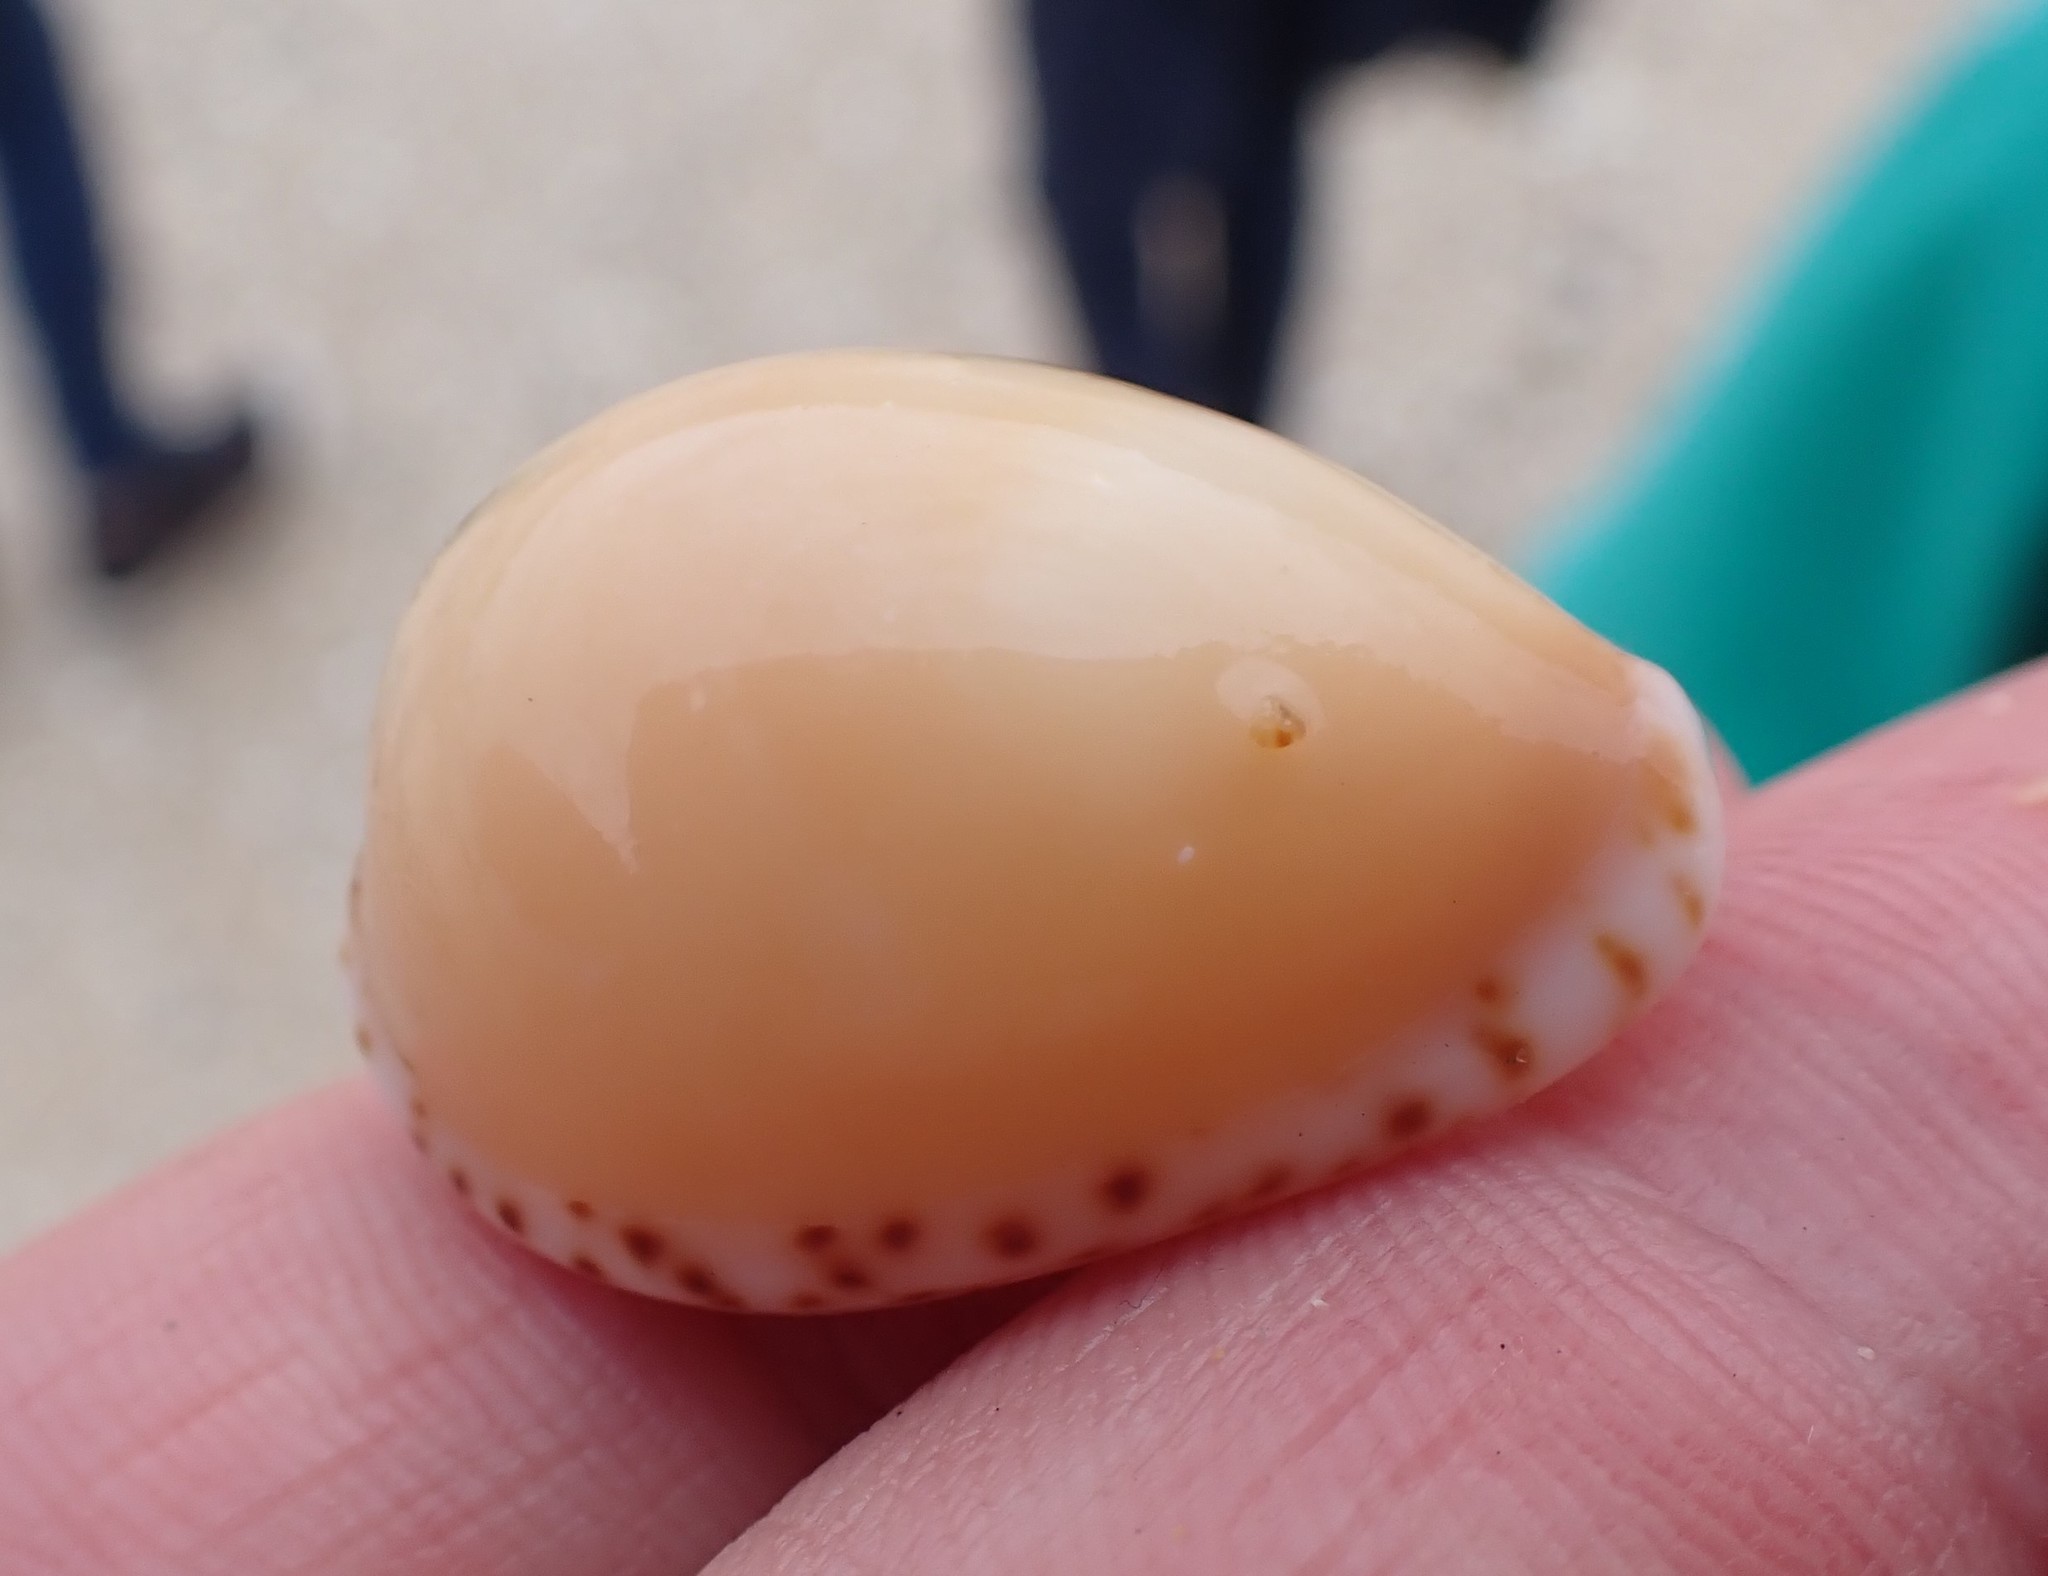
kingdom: Animalia
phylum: Mollusca
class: Gastropoda
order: Littorinimorpha
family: Cypraeidae
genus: Notocypraea
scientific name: Notocypraea angustata
